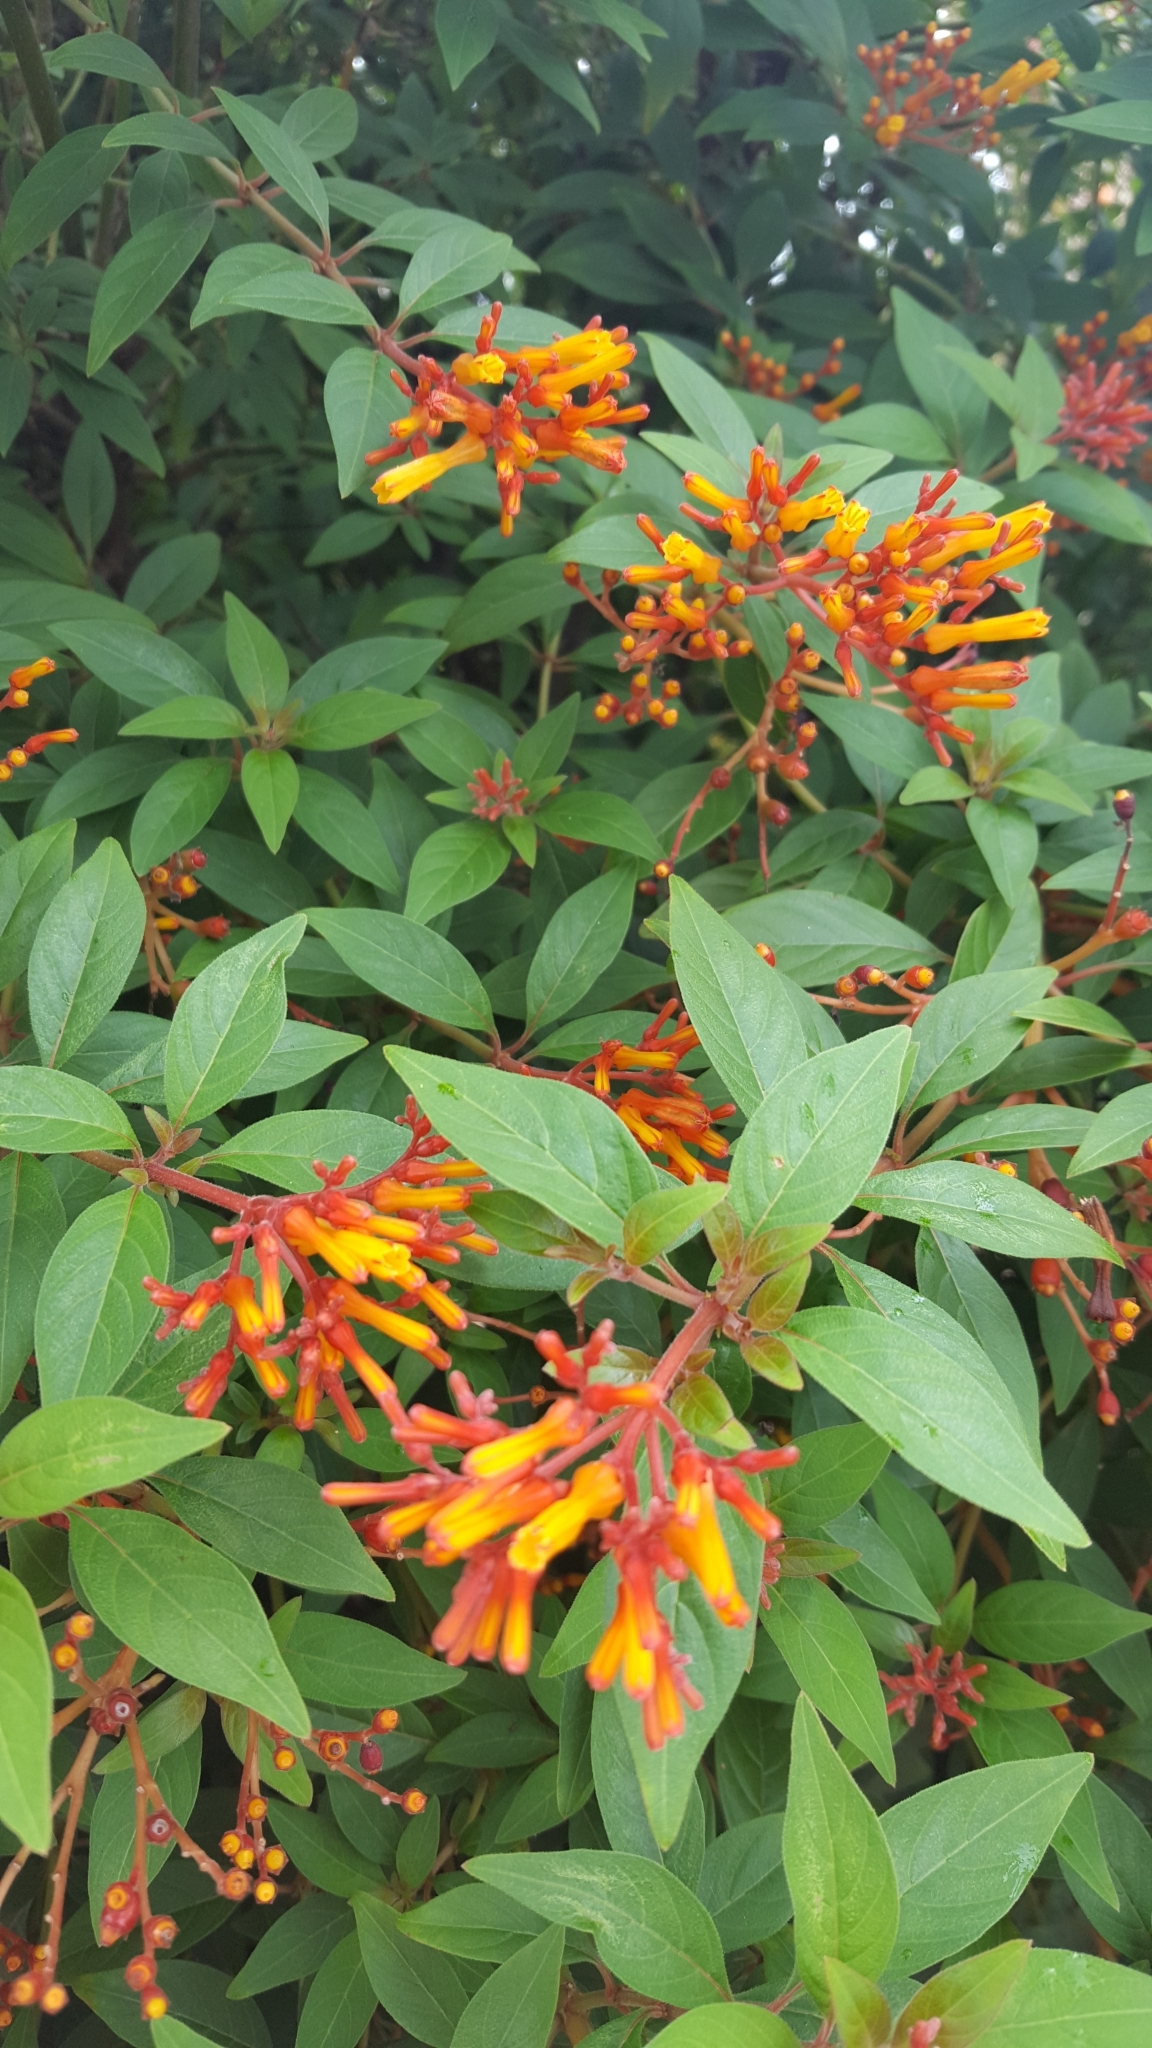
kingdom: Plantae
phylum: Tracheophyta
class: Magnoliopsida
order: Gentianales
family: Rubiaceae
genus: Hamelia
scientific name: Hamelia patens
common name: Redhead
